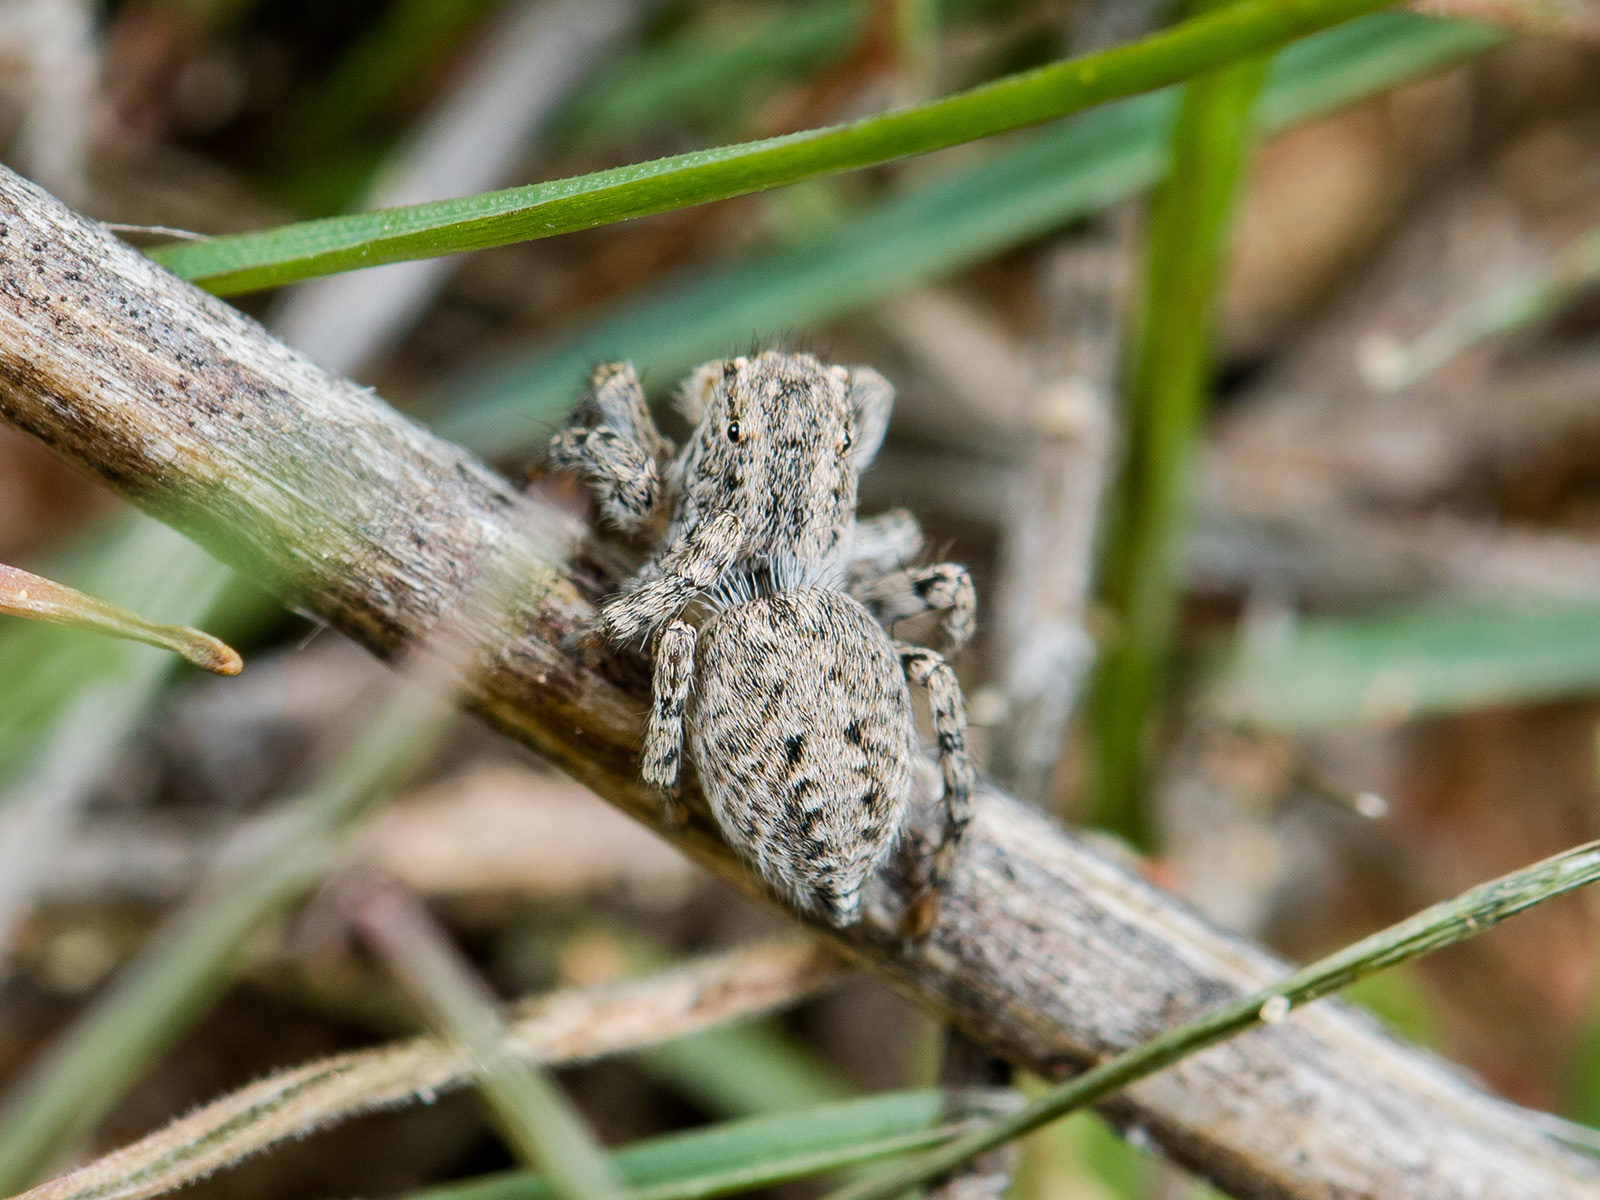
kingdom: Animalia
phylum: Arthropoda
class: Arachnida
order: Araneae
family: Salticidae
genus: Aelurillus
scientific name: Aelurillus v-insignitus
